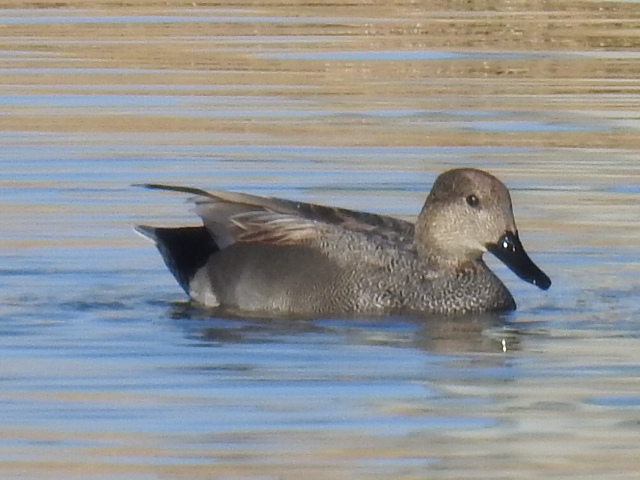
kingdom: Animalia
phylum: Chordata
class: Aves
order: Anseriformes
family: Anatidae
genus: Mareca
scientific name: Mareca strepera
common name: Gadwall
